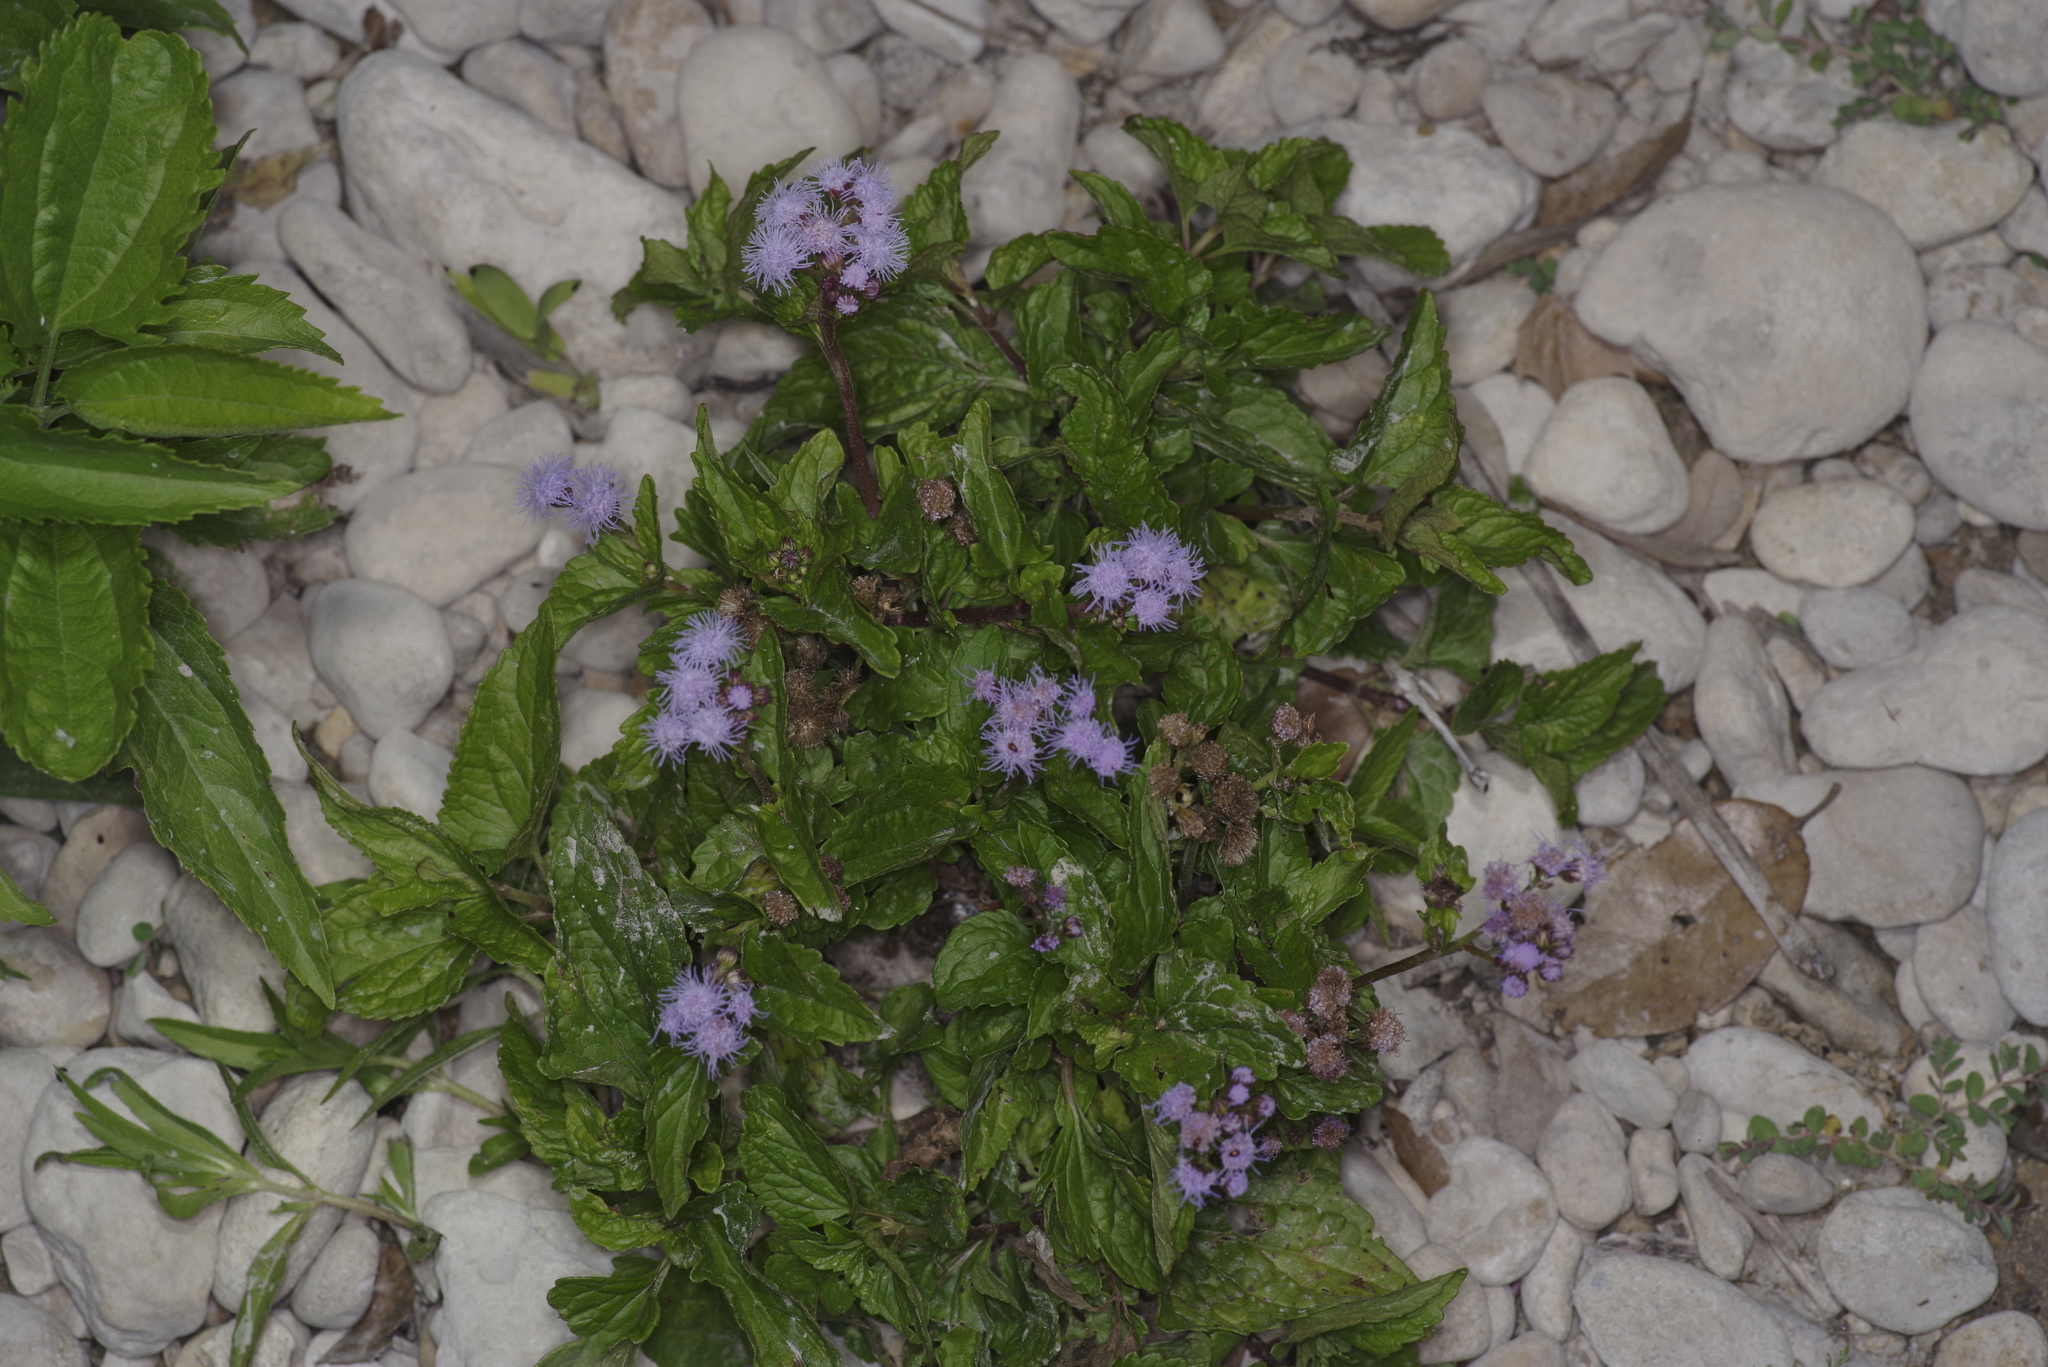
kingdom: Plantae
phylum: Tracheophyta
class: Magnoliopsida
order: Asterales
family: Asteraceae
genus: Conoclinium
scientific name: Conoclinium coelestinum
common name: Blue mistflower
